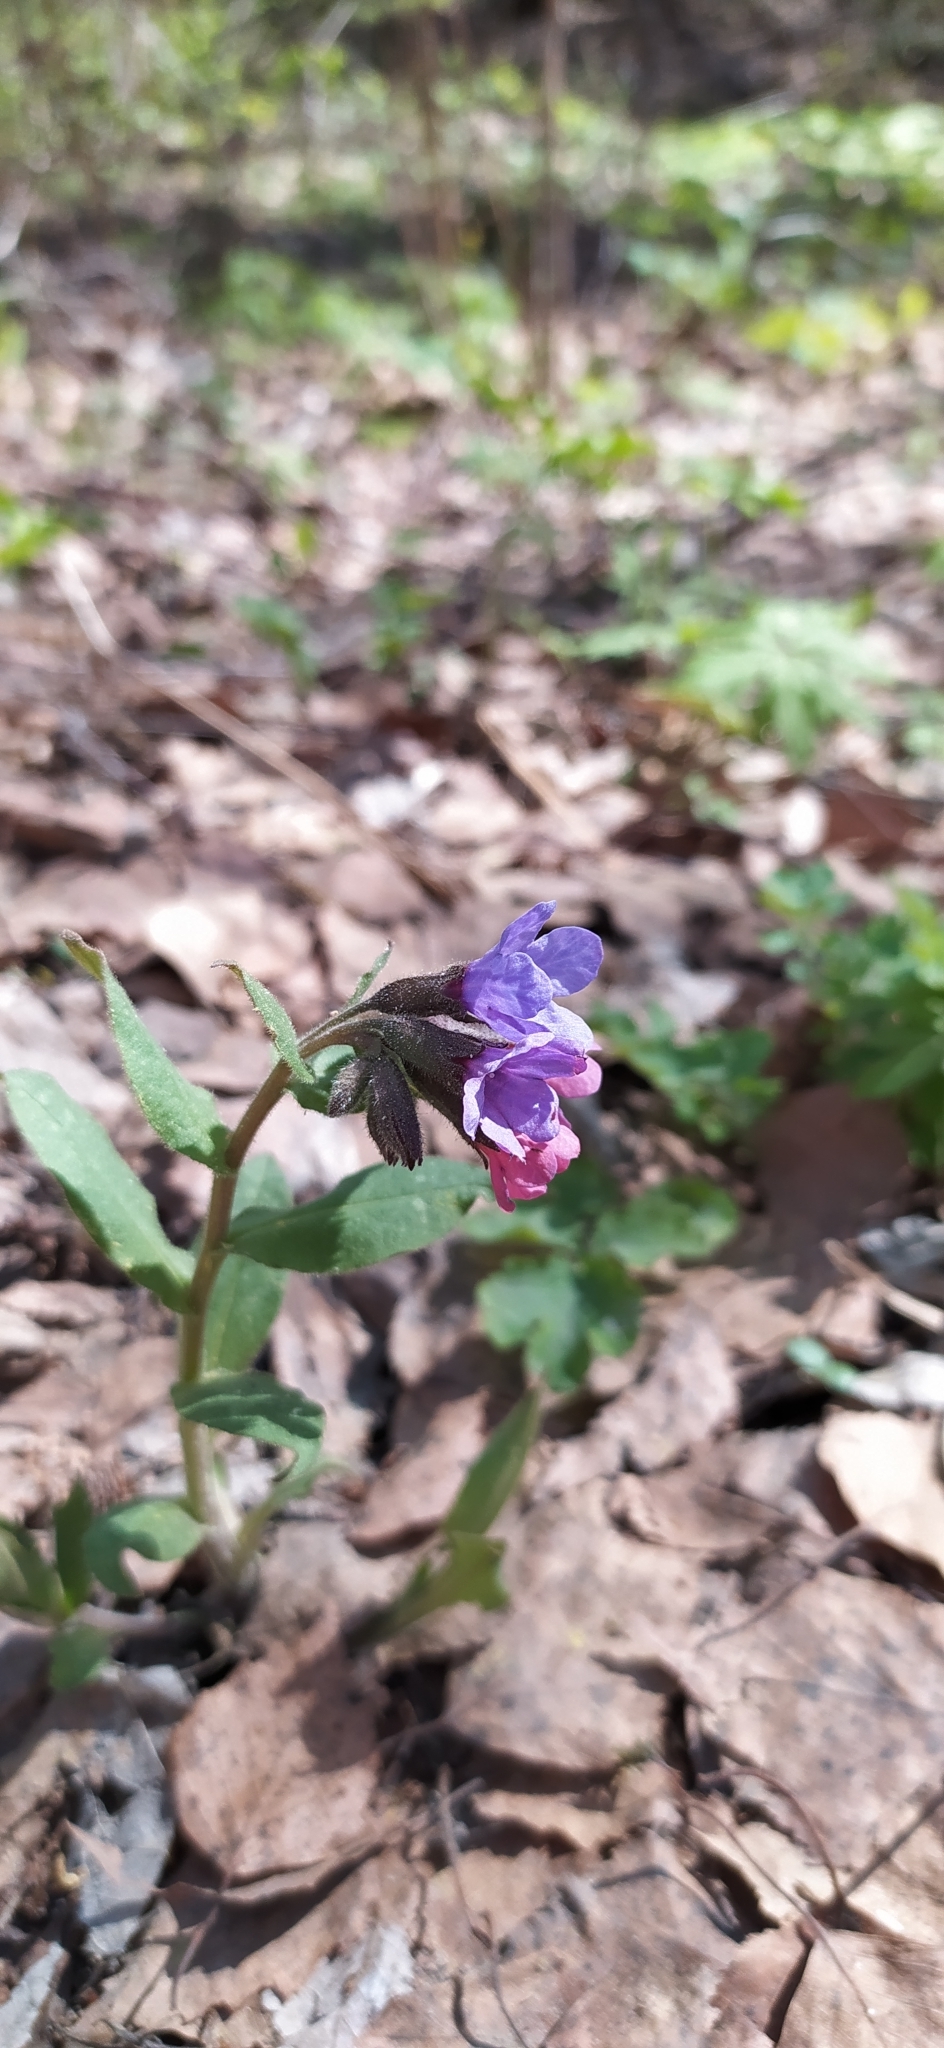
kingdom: Plantae
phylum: Tracheophyta
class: Magnoliopsida
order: Boraginales
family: Boraginaceae
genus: Pulmonaria
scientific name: Pulmonaria obscura
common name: Suffolk lungwort
